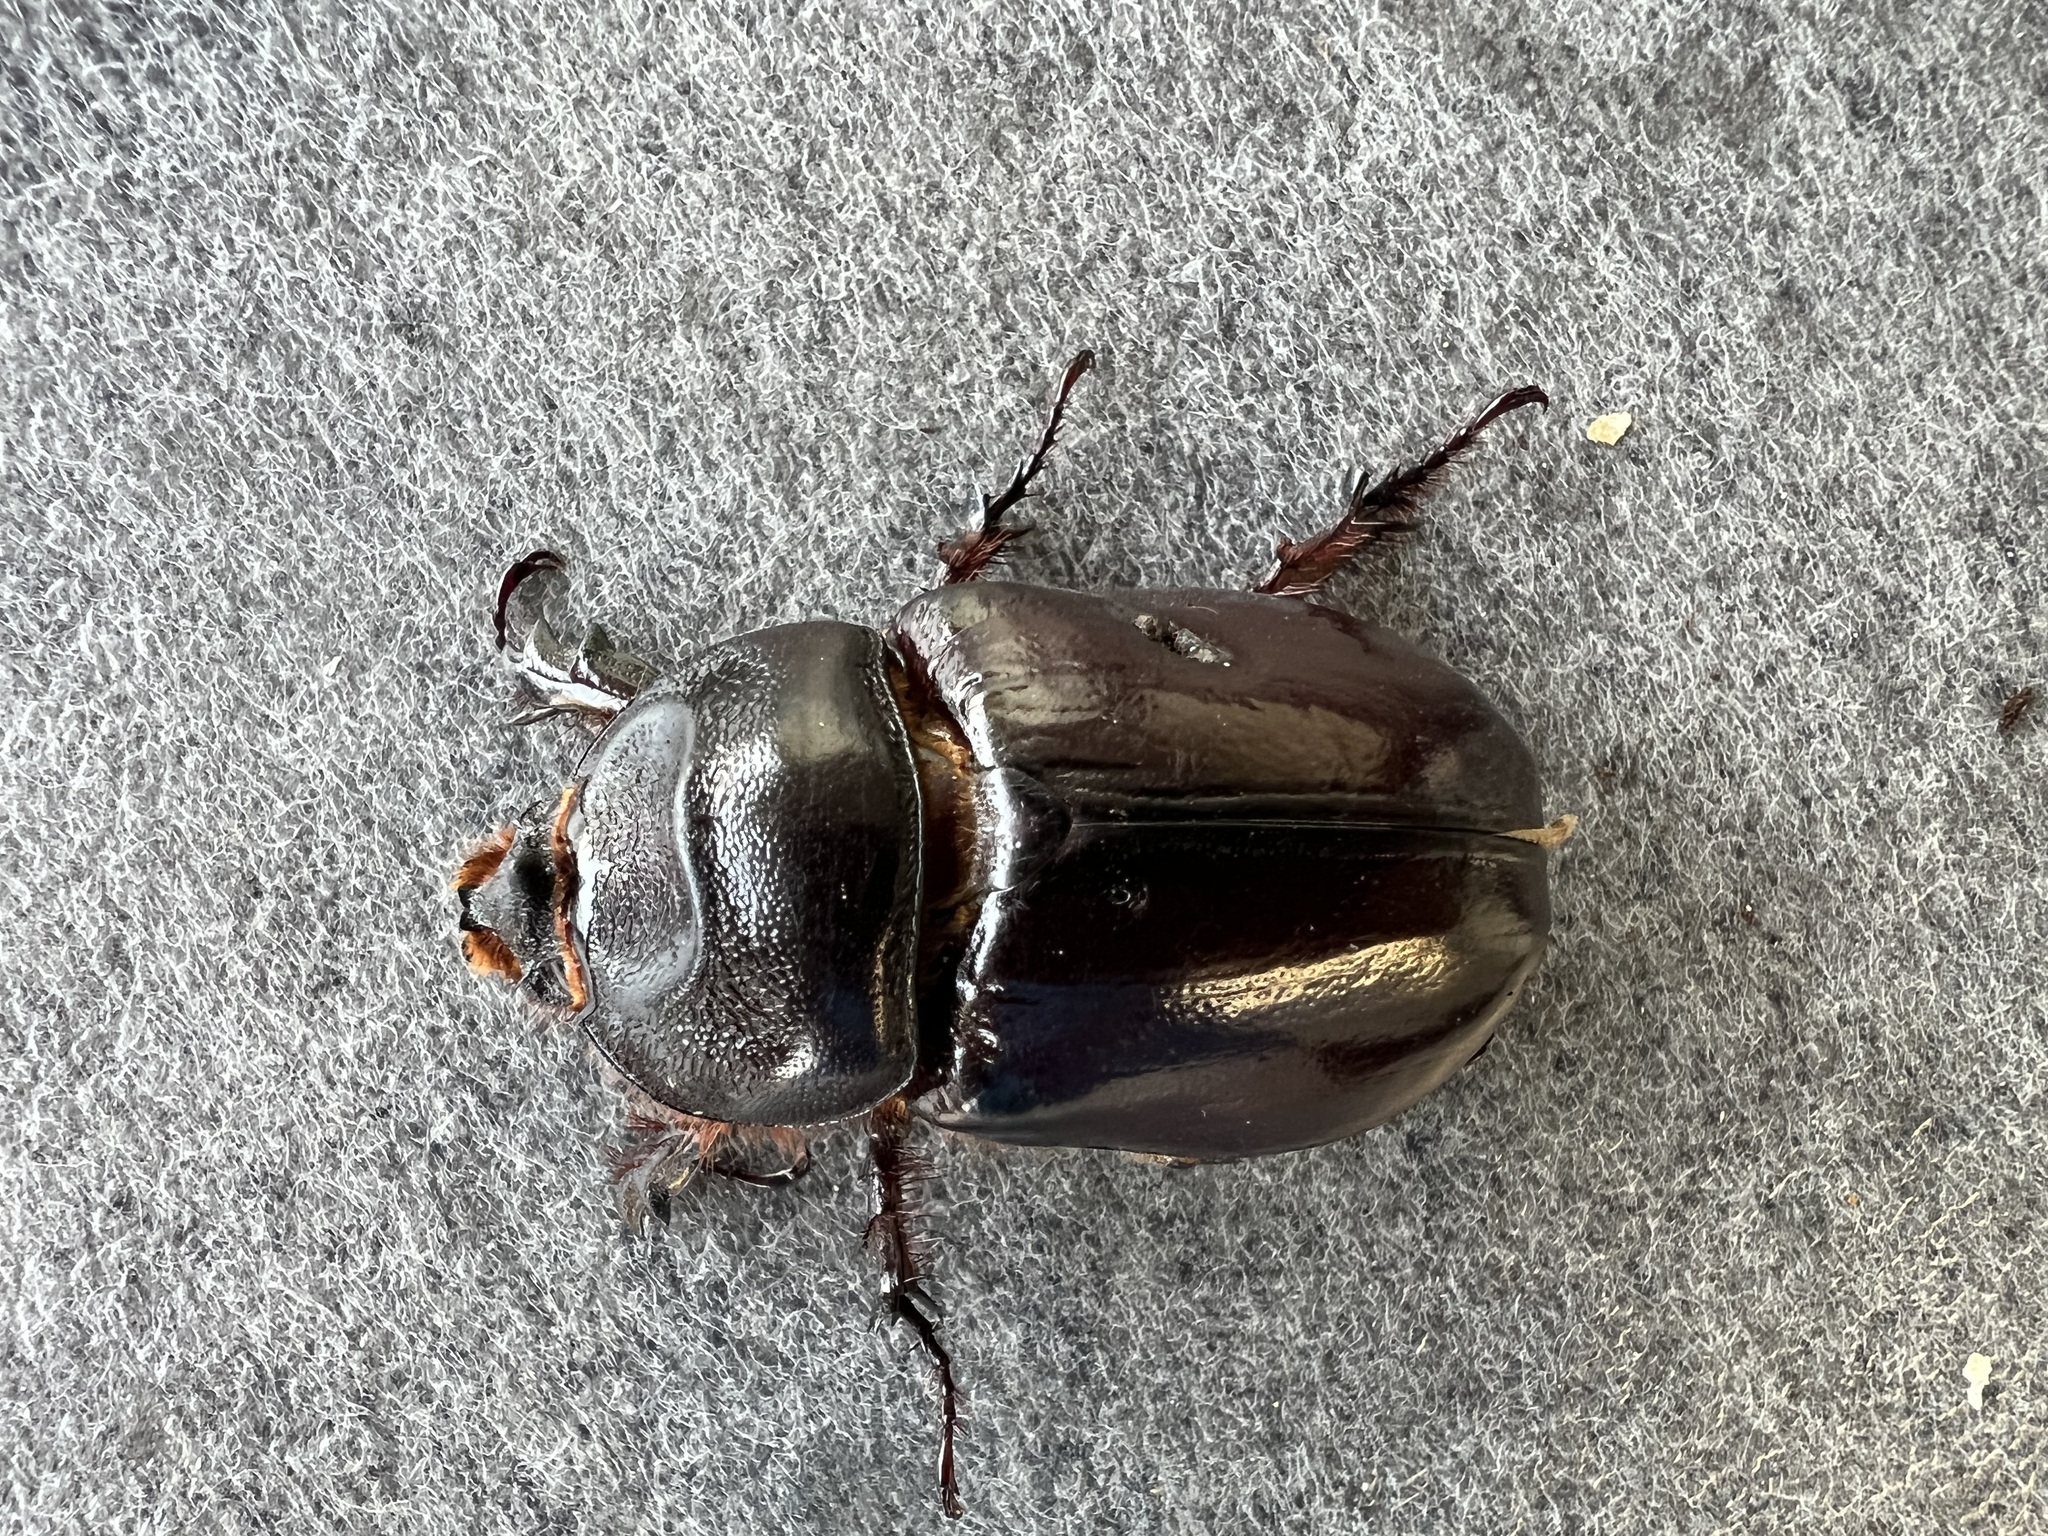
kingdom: Animalia
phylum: Arthropoda
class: Insecta
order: Coleoptera
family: Scarabaeidae
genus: Oryctes
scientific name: Oryctes nasicornis
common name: European rhinoceros beetle
